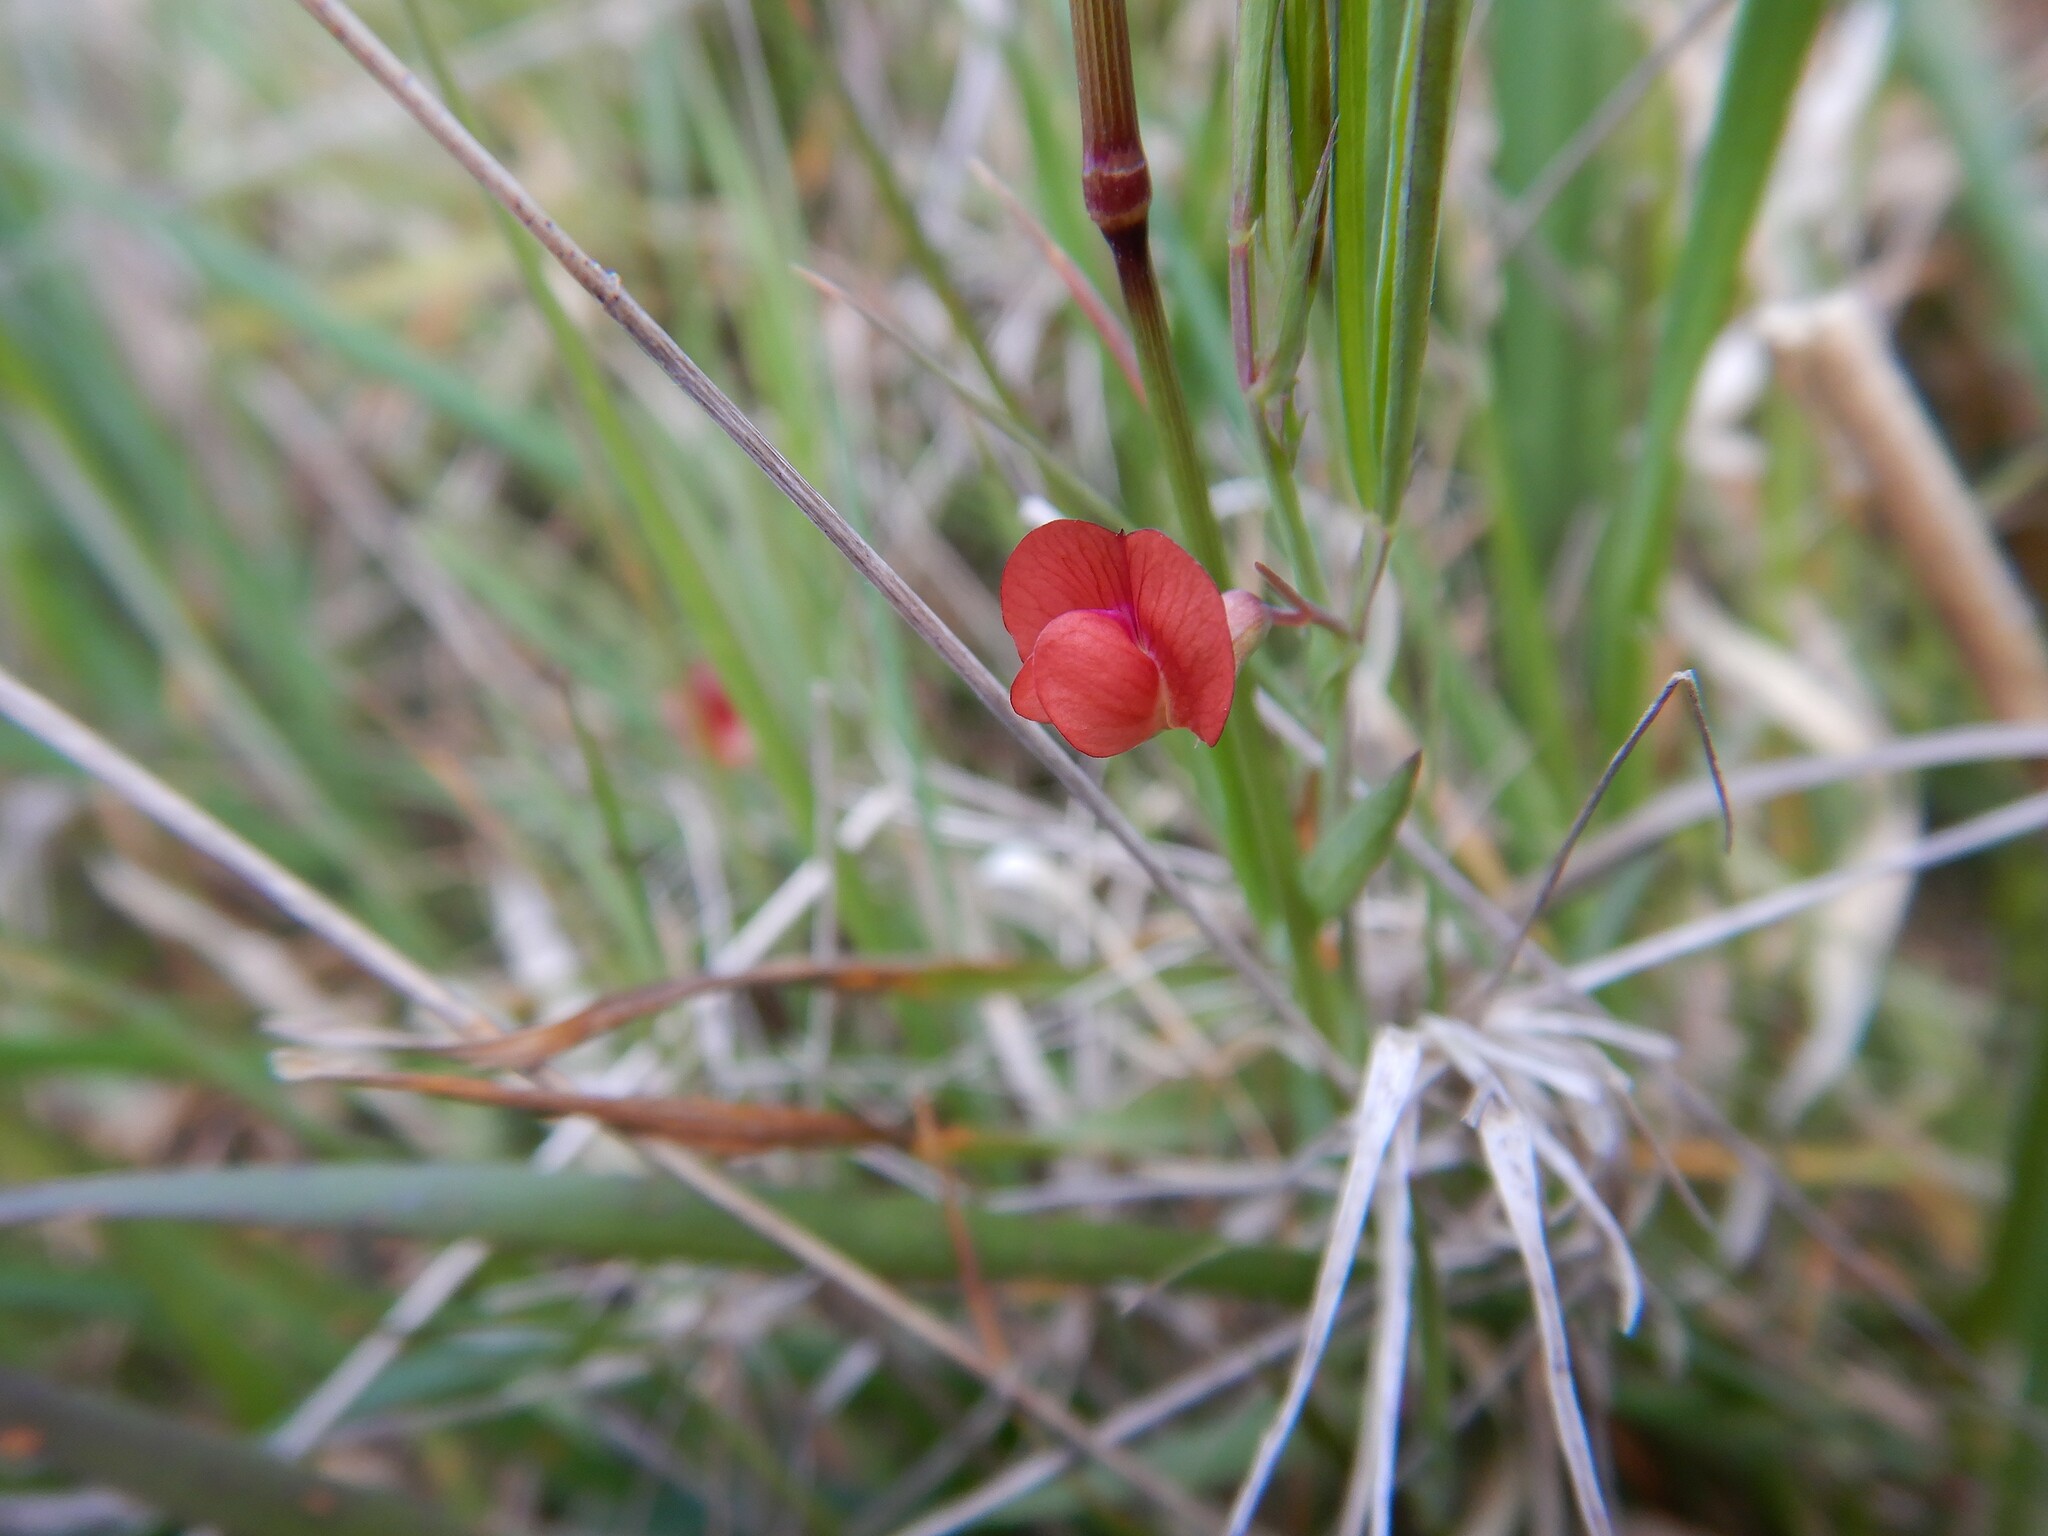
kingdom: Plantae
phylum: Tracheophyta
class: Magnoliopsida
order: Fabales
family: Fabaceae
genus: Lathyrus
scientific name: Lathyrus sphaericus
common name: Grass pea
